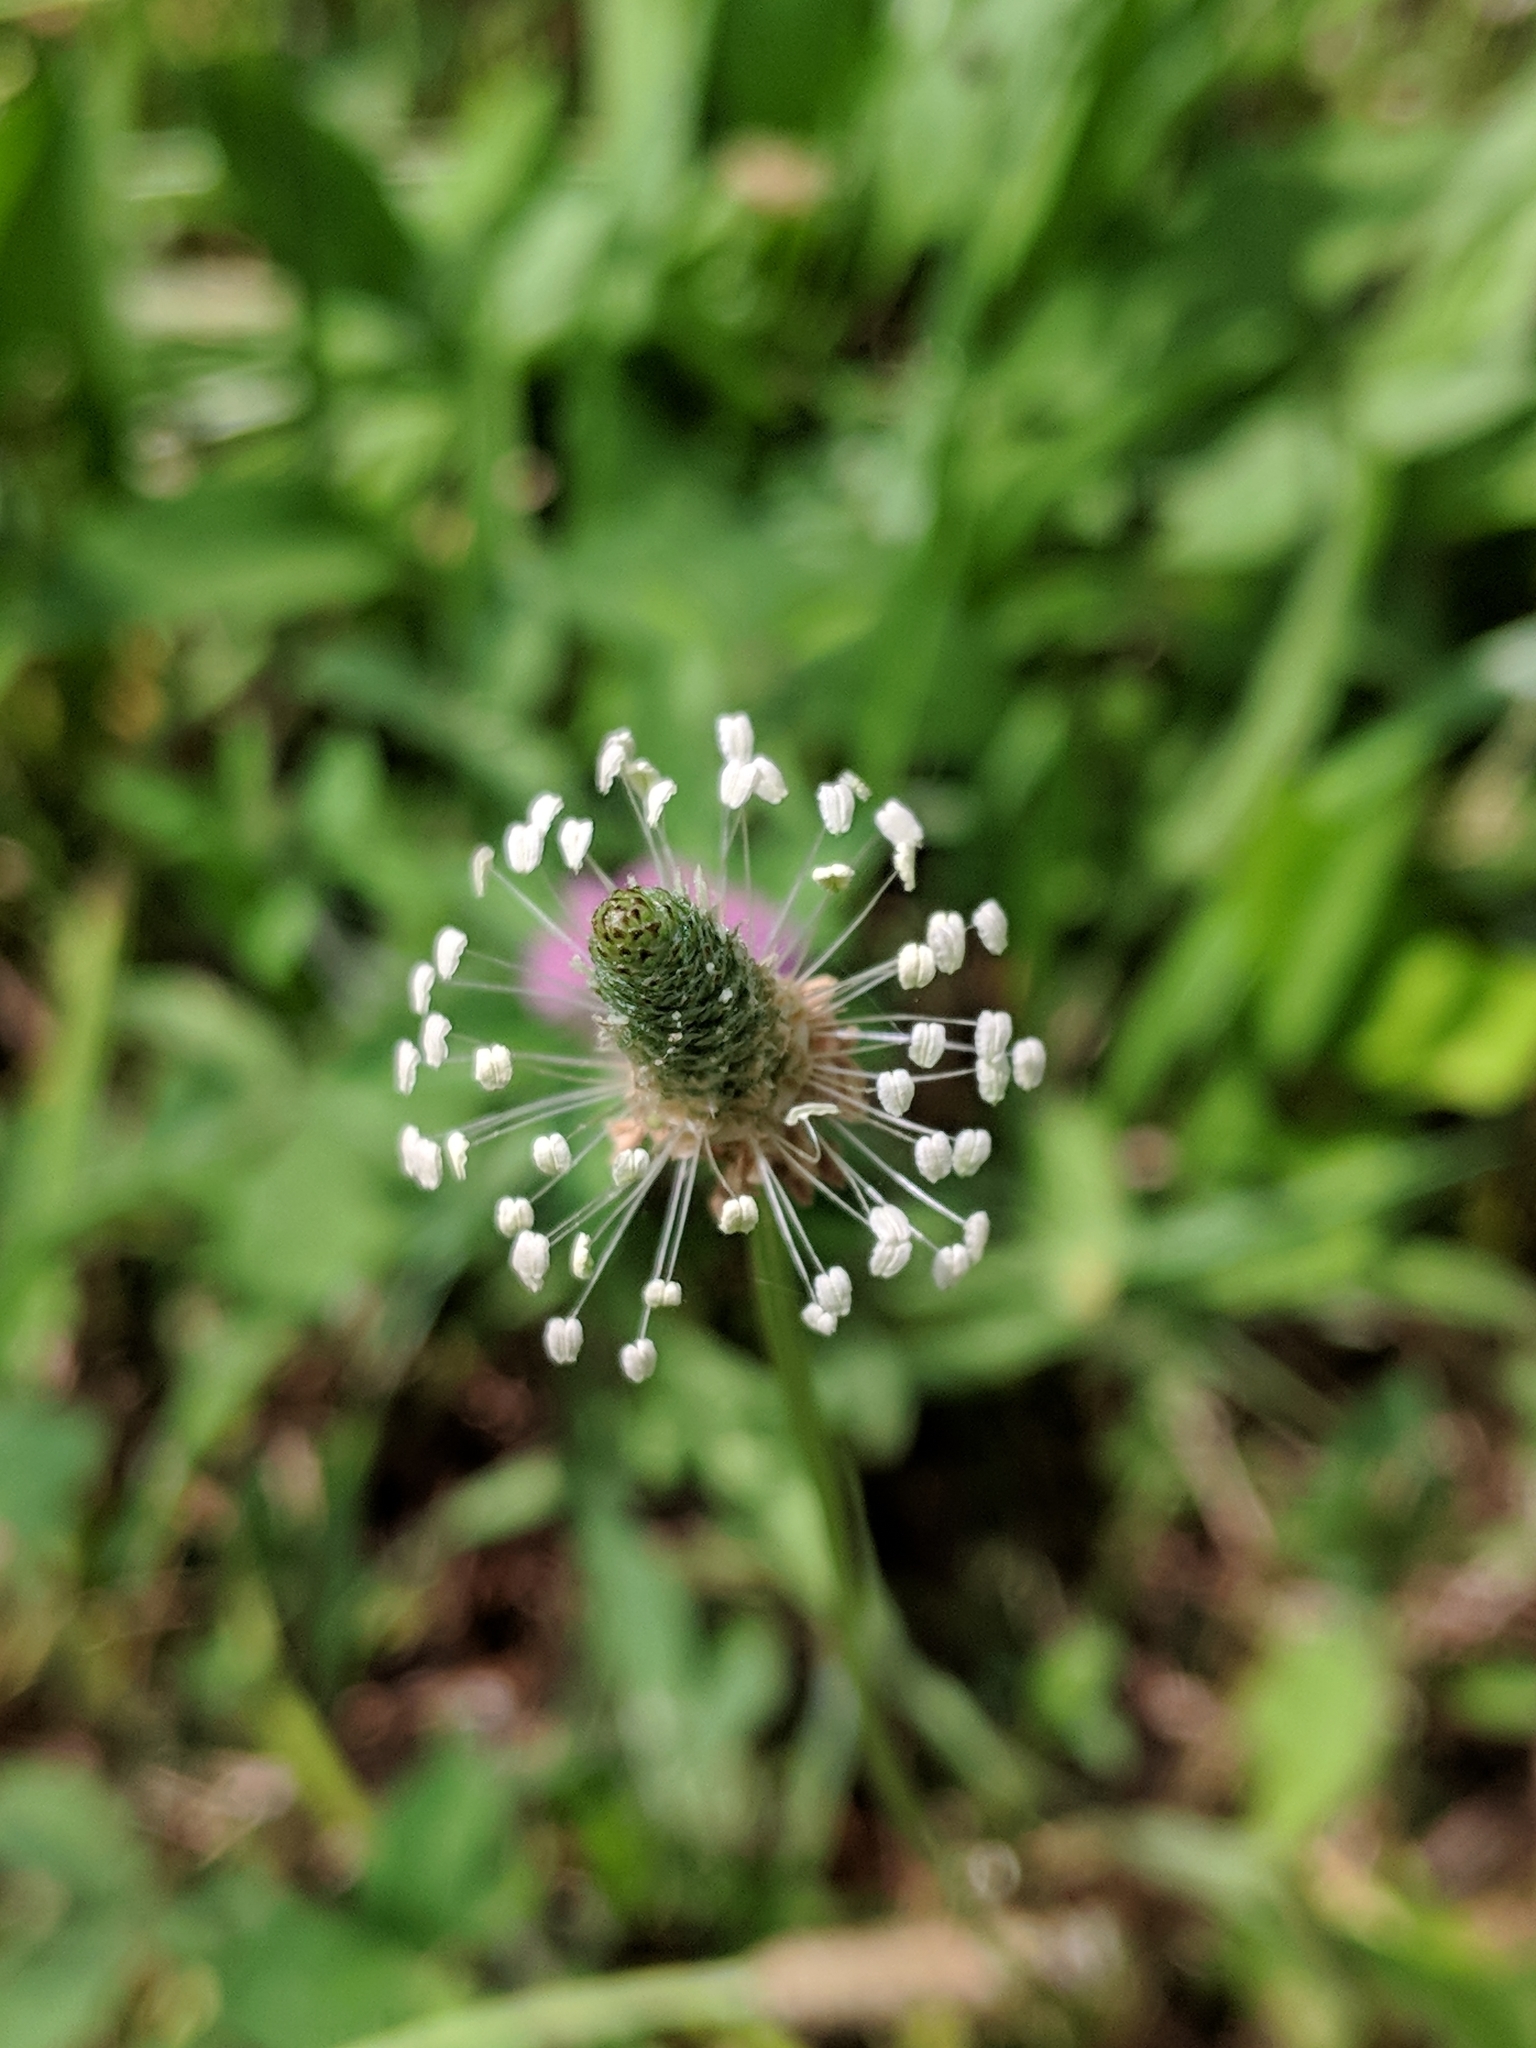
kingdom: Plantae
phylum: Tracheophyta
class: Magnoliopsida
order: Lamiales
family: Plantaginaceae
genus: Plantago
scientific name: Plantago lanceolata
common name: Ribwort plantain
